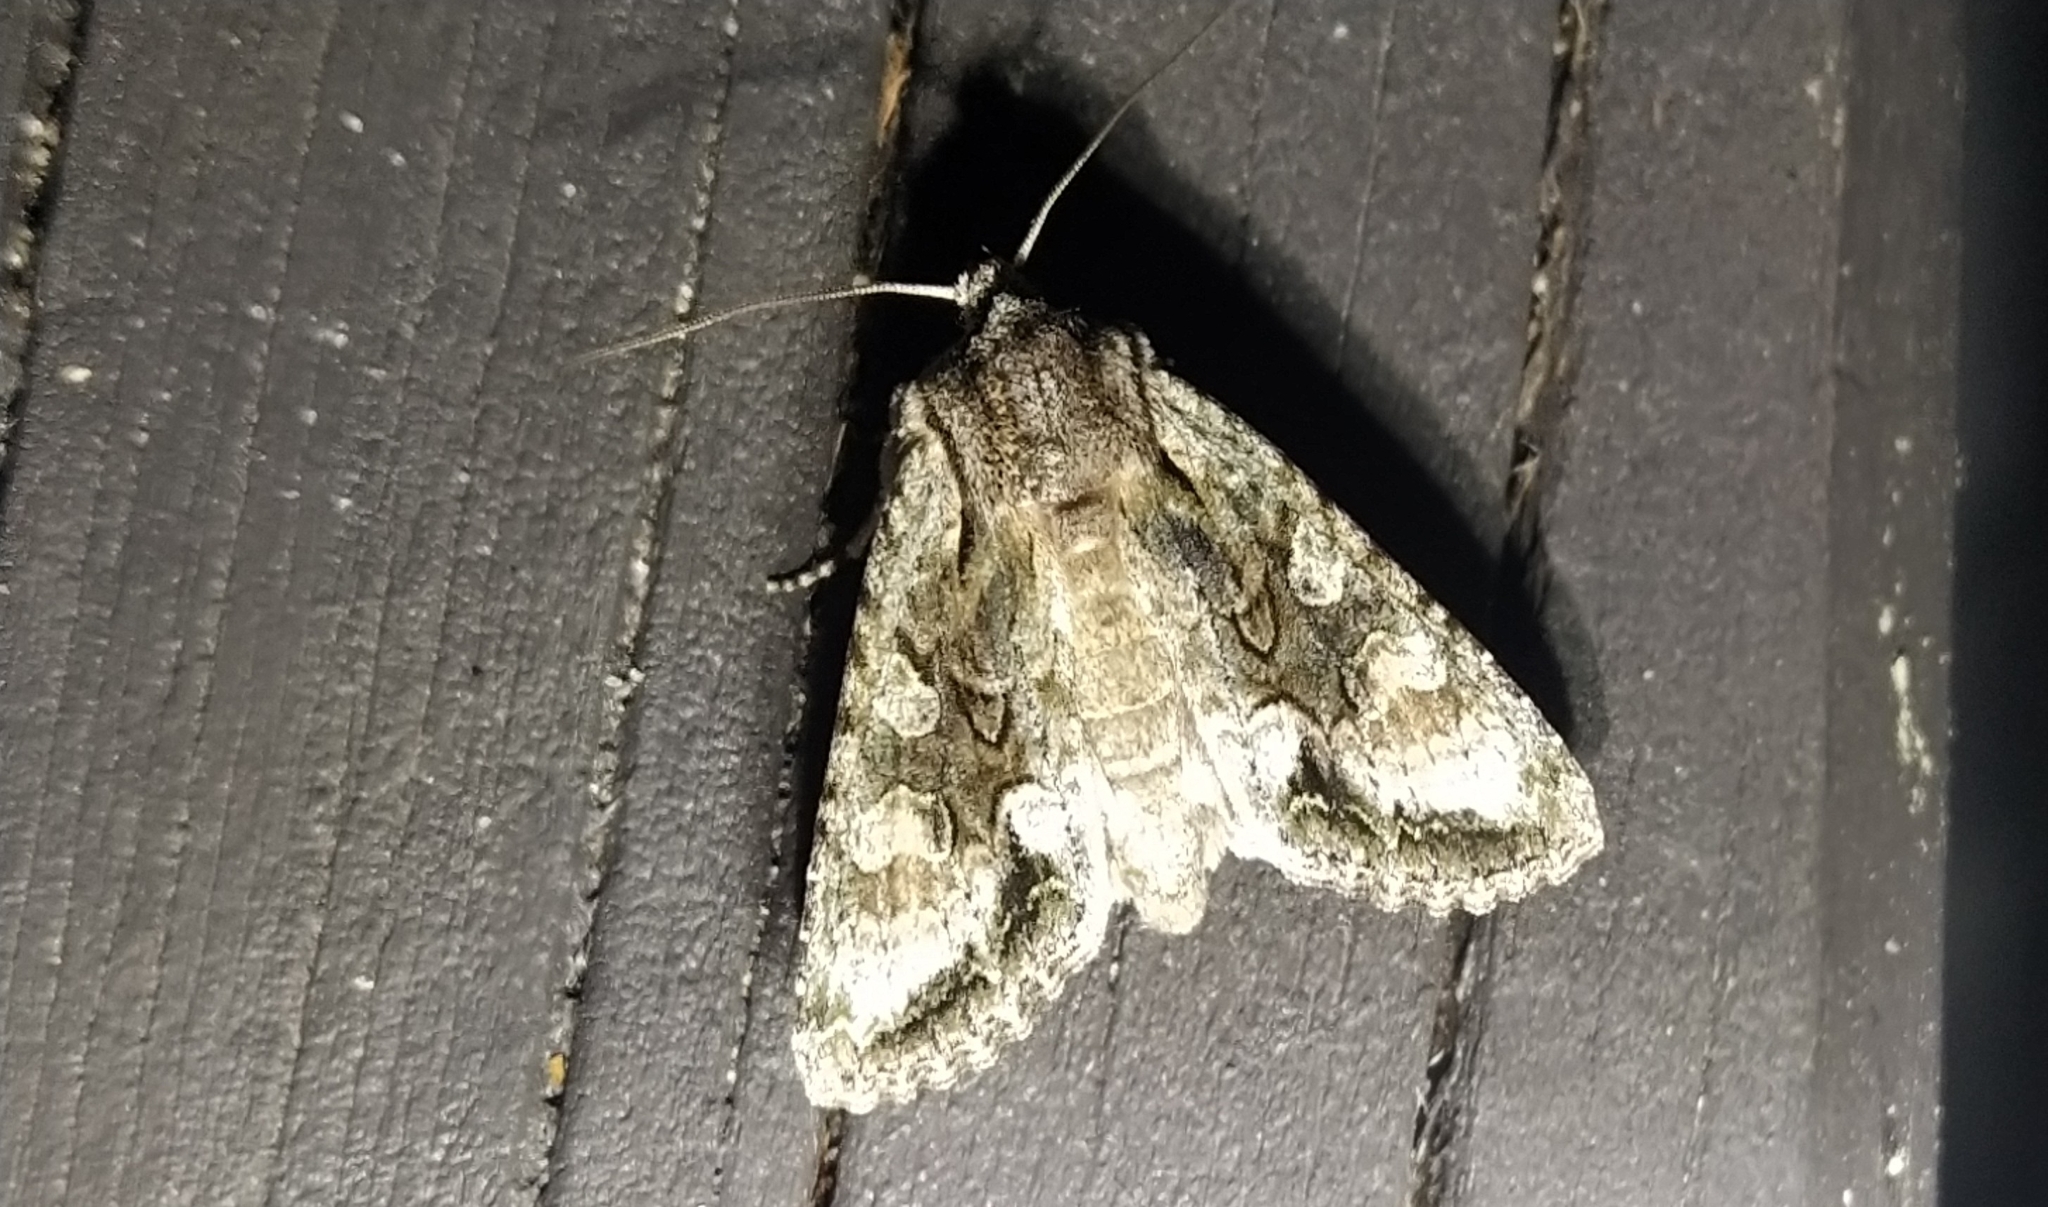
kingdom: Animalia
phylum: Arthropoda
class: Insecta
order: Lepidoptera
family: Noctuidae
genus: Ichneutica
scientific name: Ichneutica mutans
